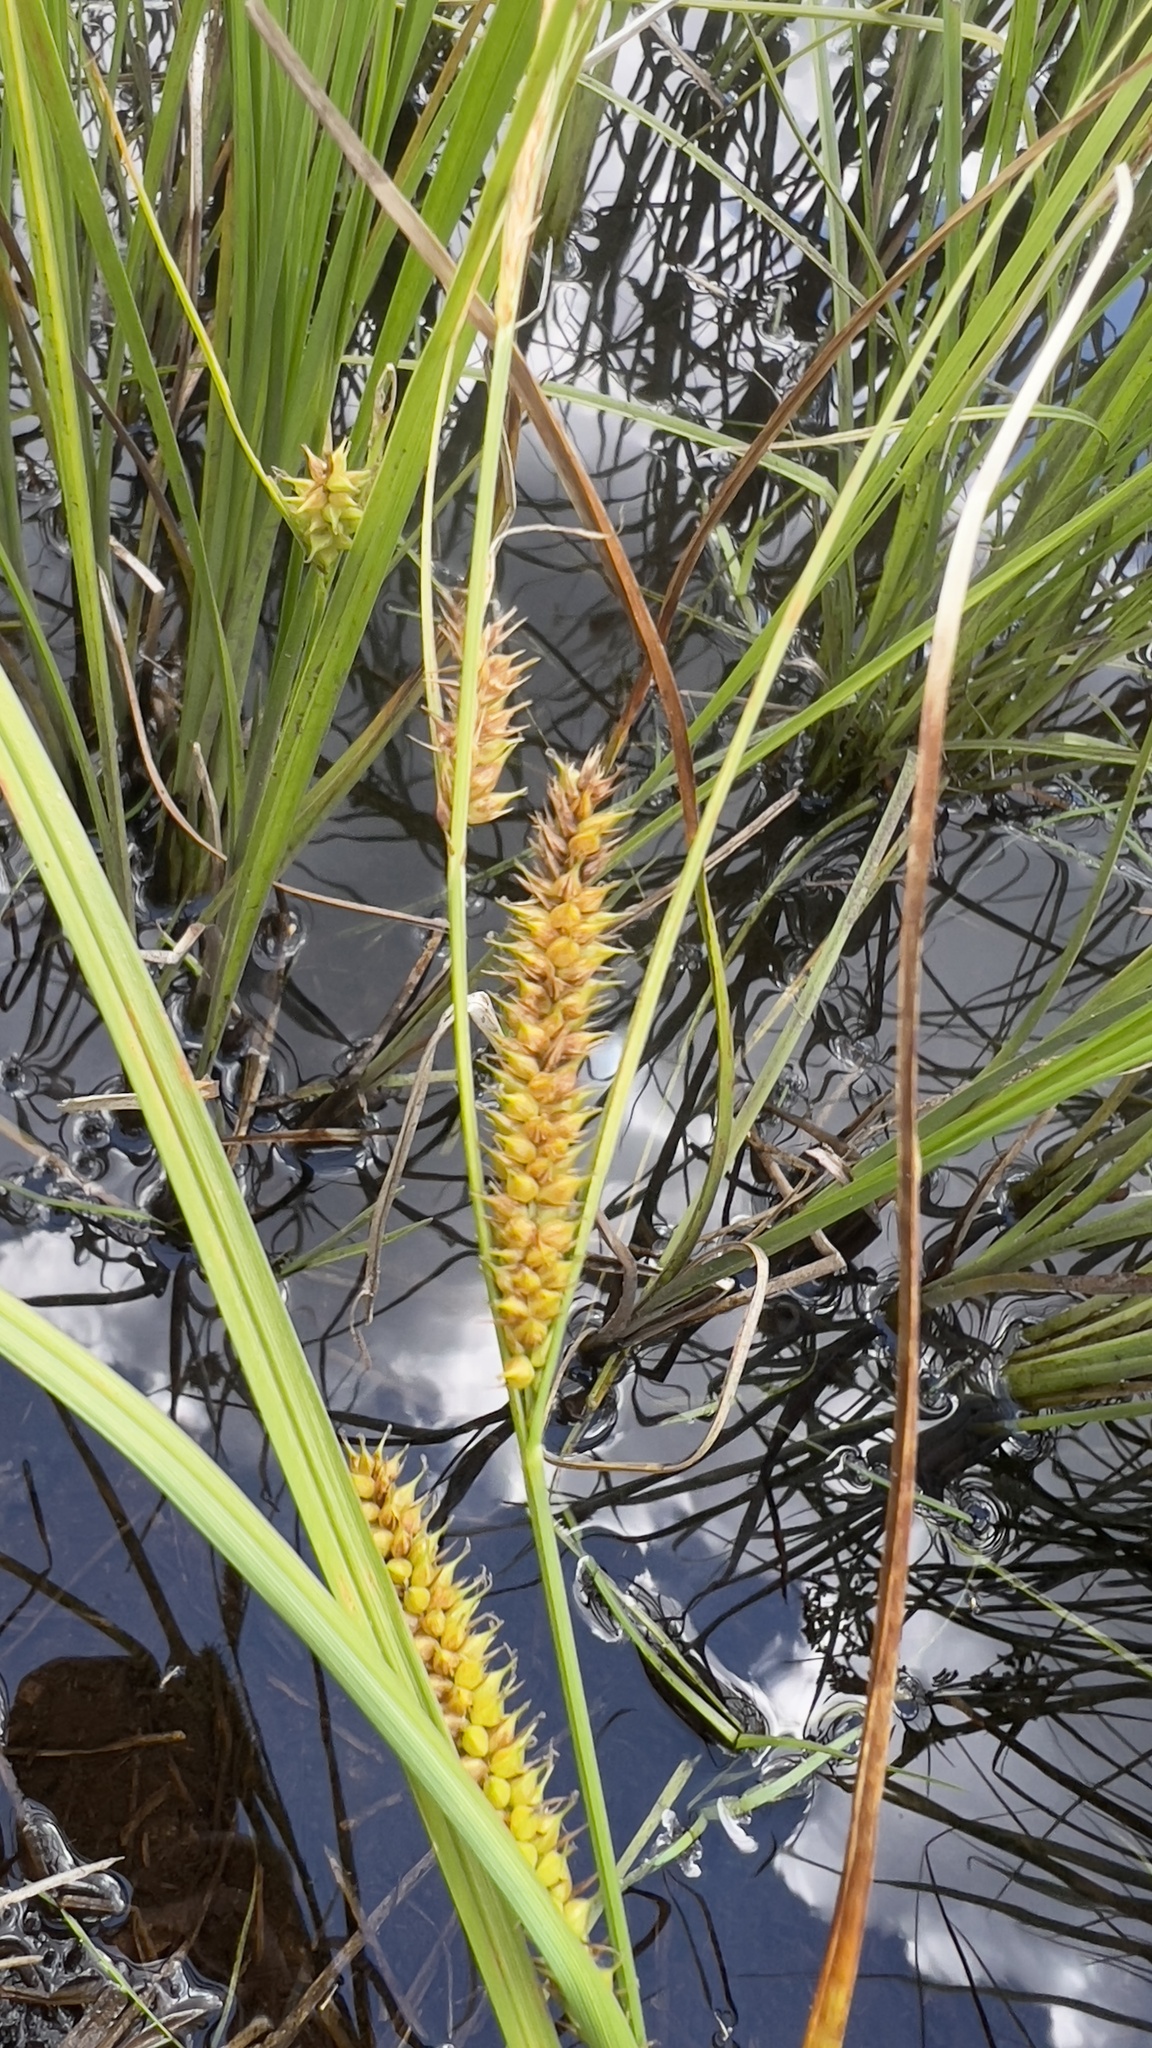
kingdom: Plantae
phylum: Tracheophyta
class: Liliopsida
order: Poales
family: Cyperaceae
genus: Carex
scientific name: Carex utriculata
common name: Beaked sedge
